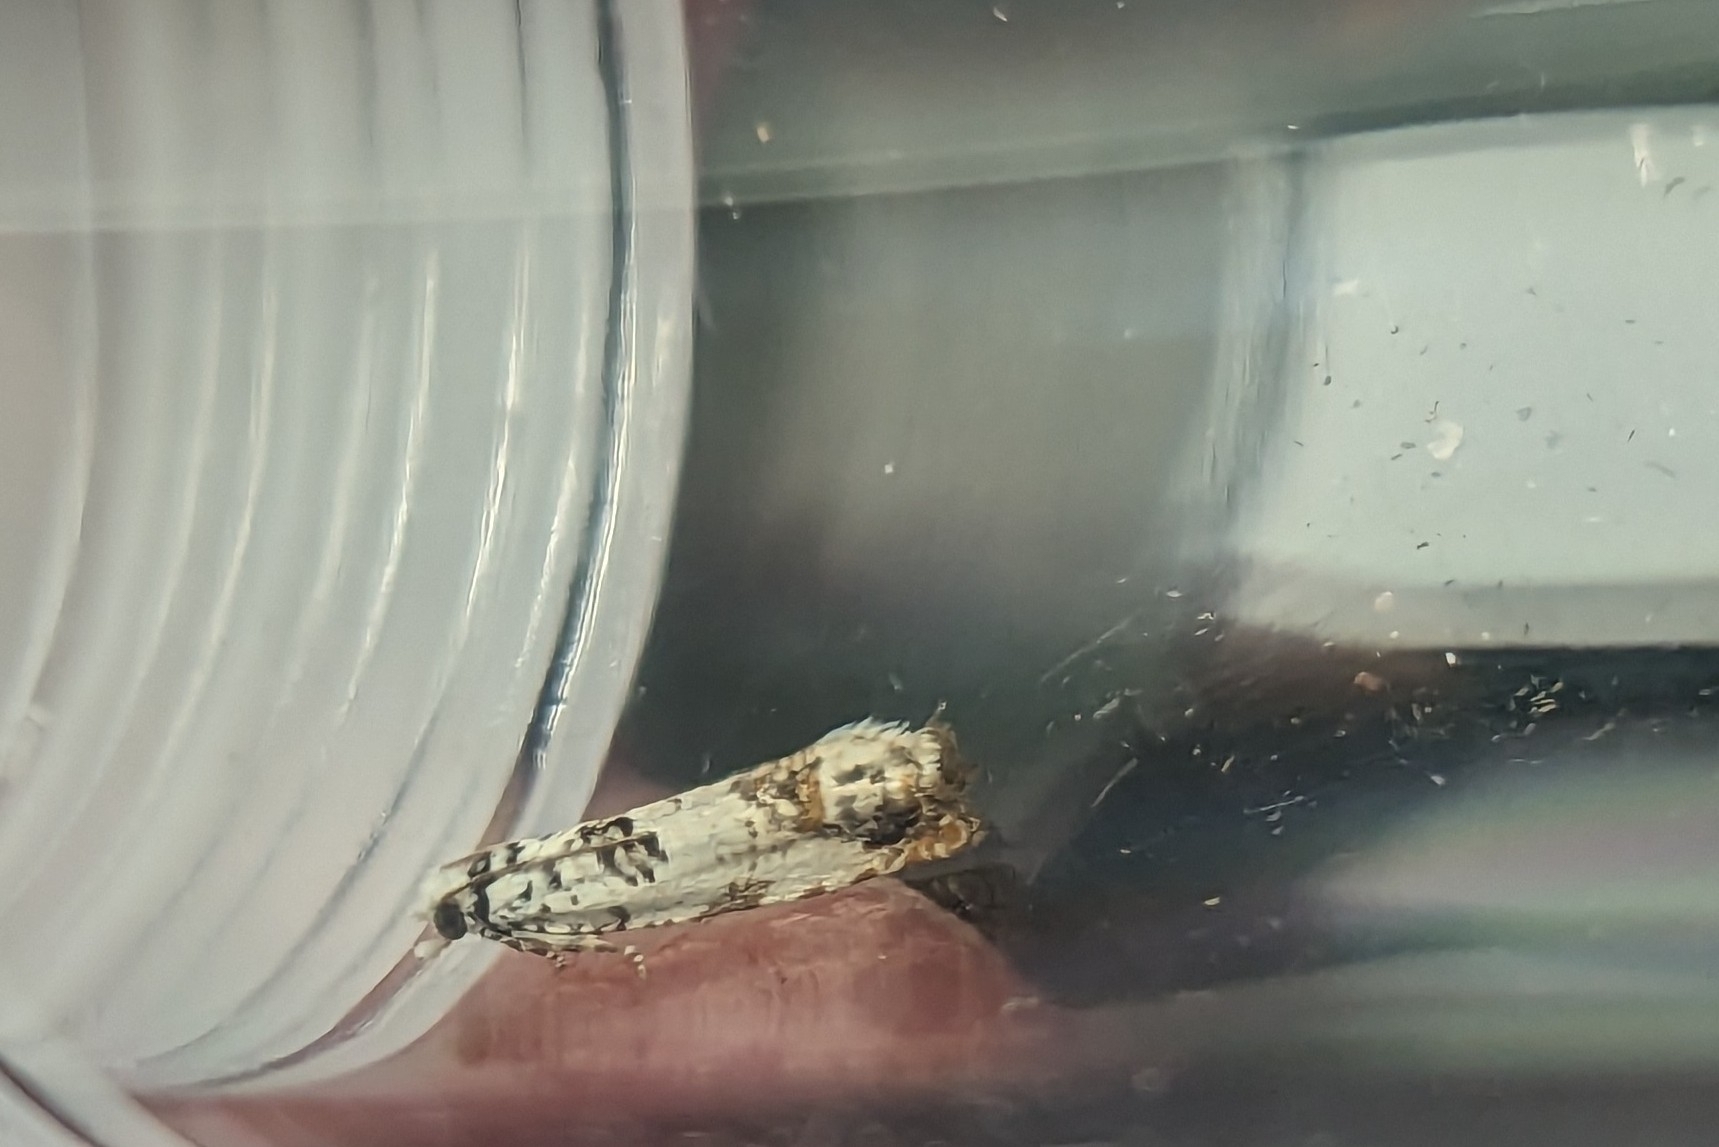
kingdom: Animalia
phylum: Arthropoda
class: Insecta
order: Lepidoptera
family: Tortricidae
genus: Eucosma
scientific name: Eucosma campoliliana
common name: Marbled bell
